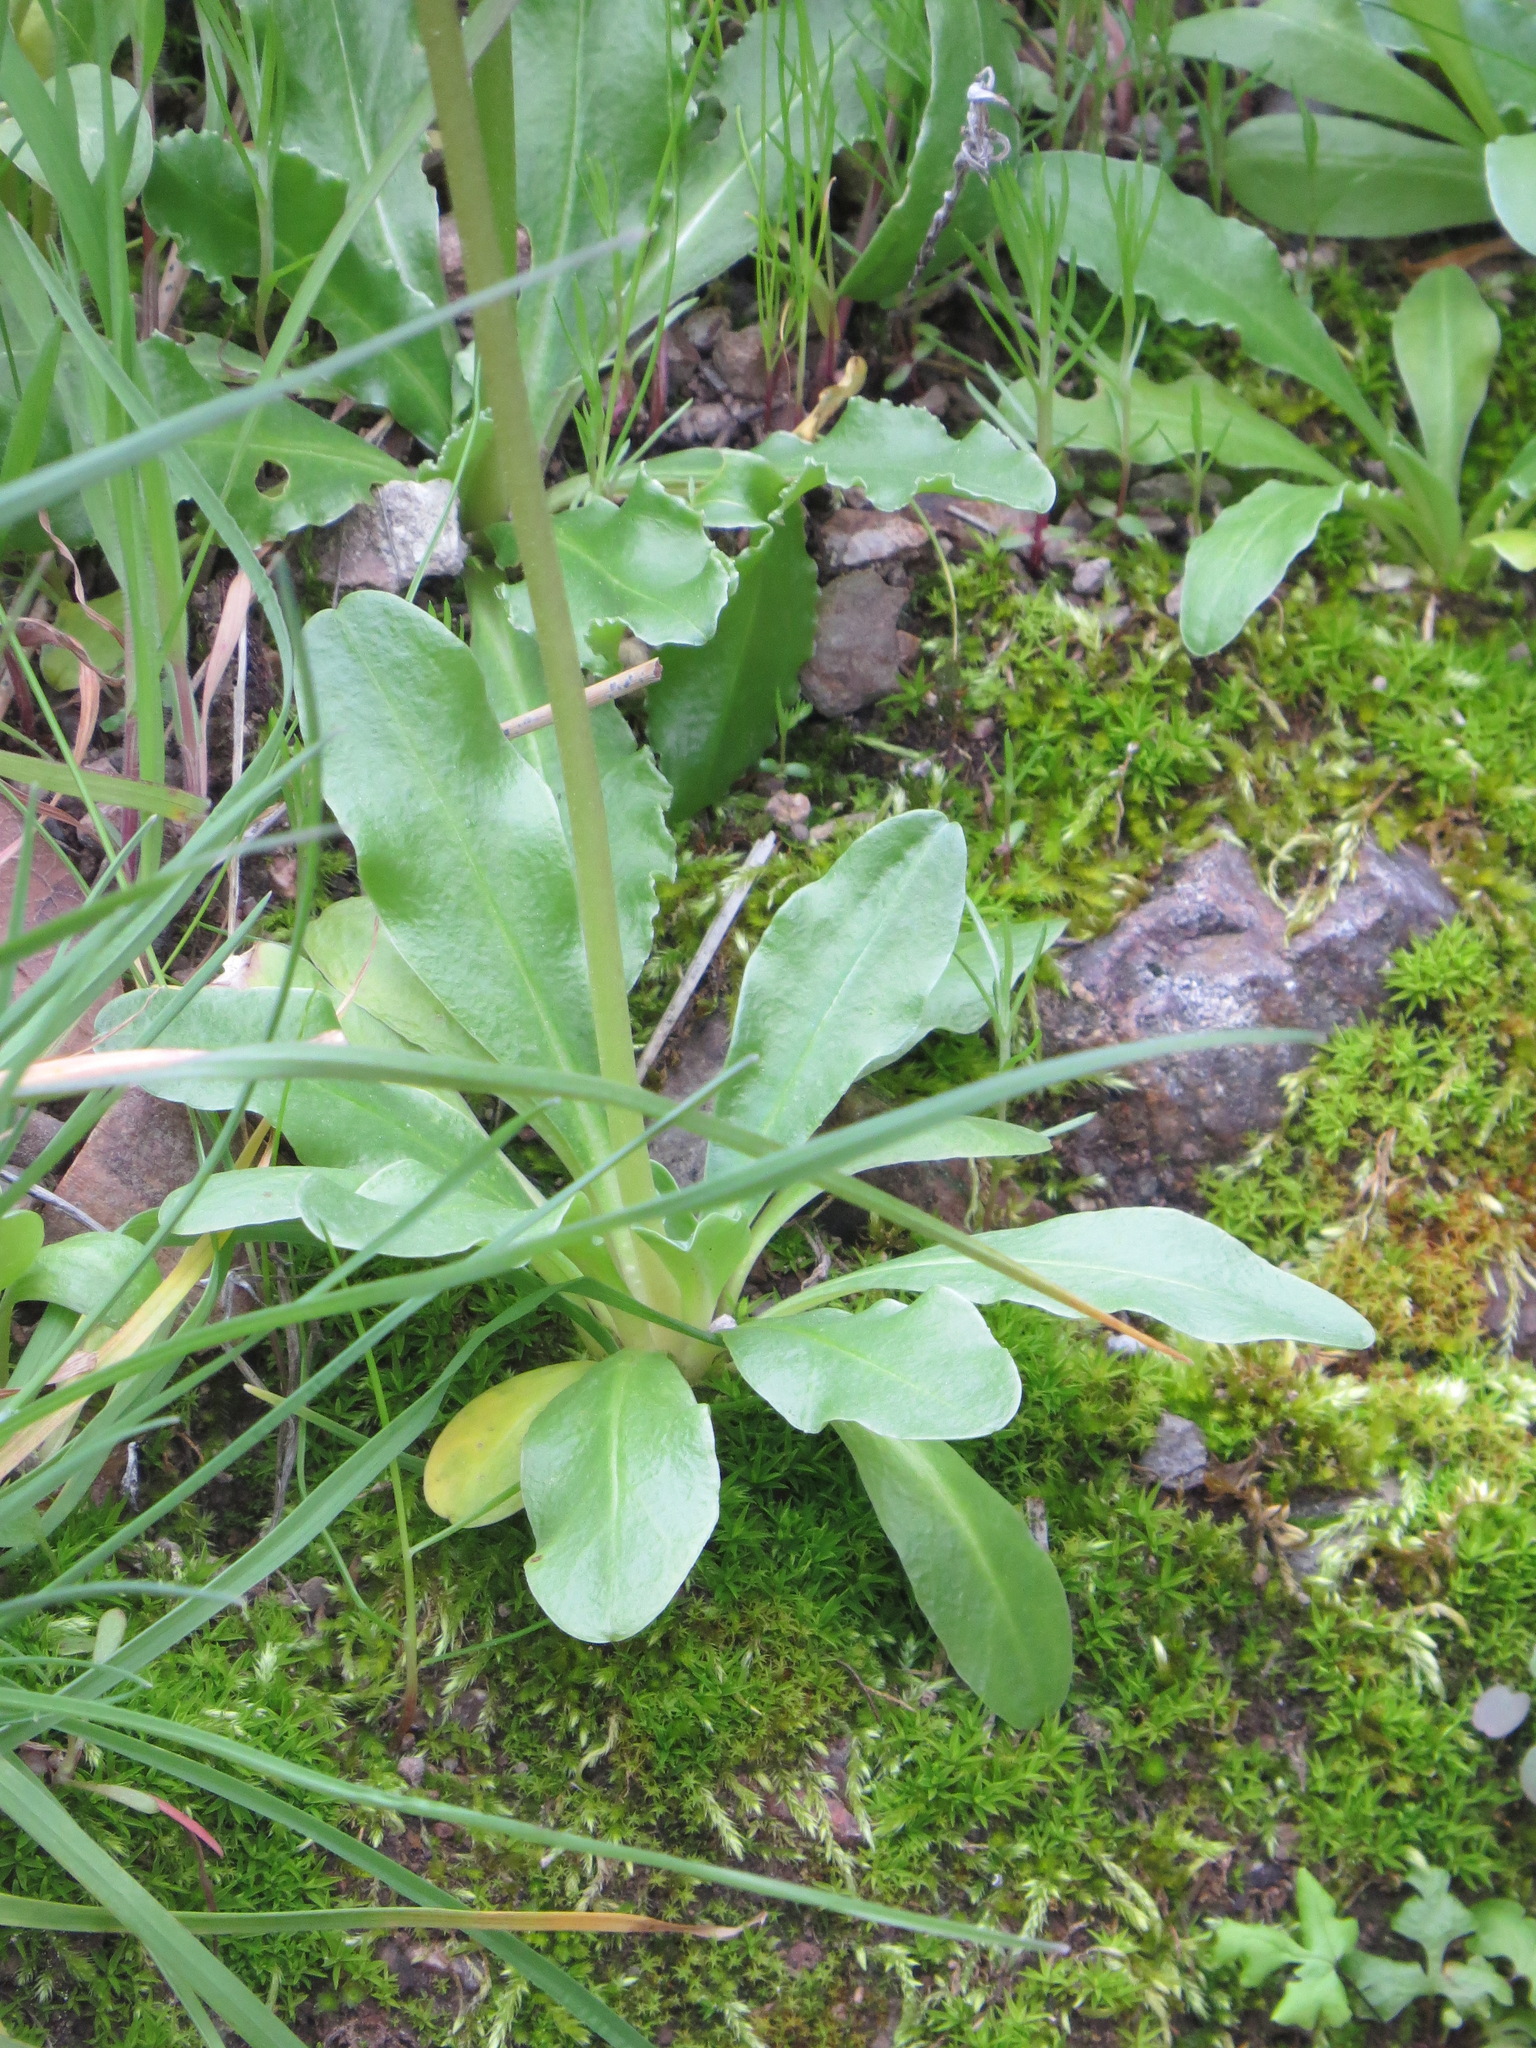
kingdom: Plantae
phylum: Tracheophyta
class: Magnoliopsida
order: Ericales
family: Primulaceae
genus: Dodecatheon
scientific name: Dodecatheon clevelandii
